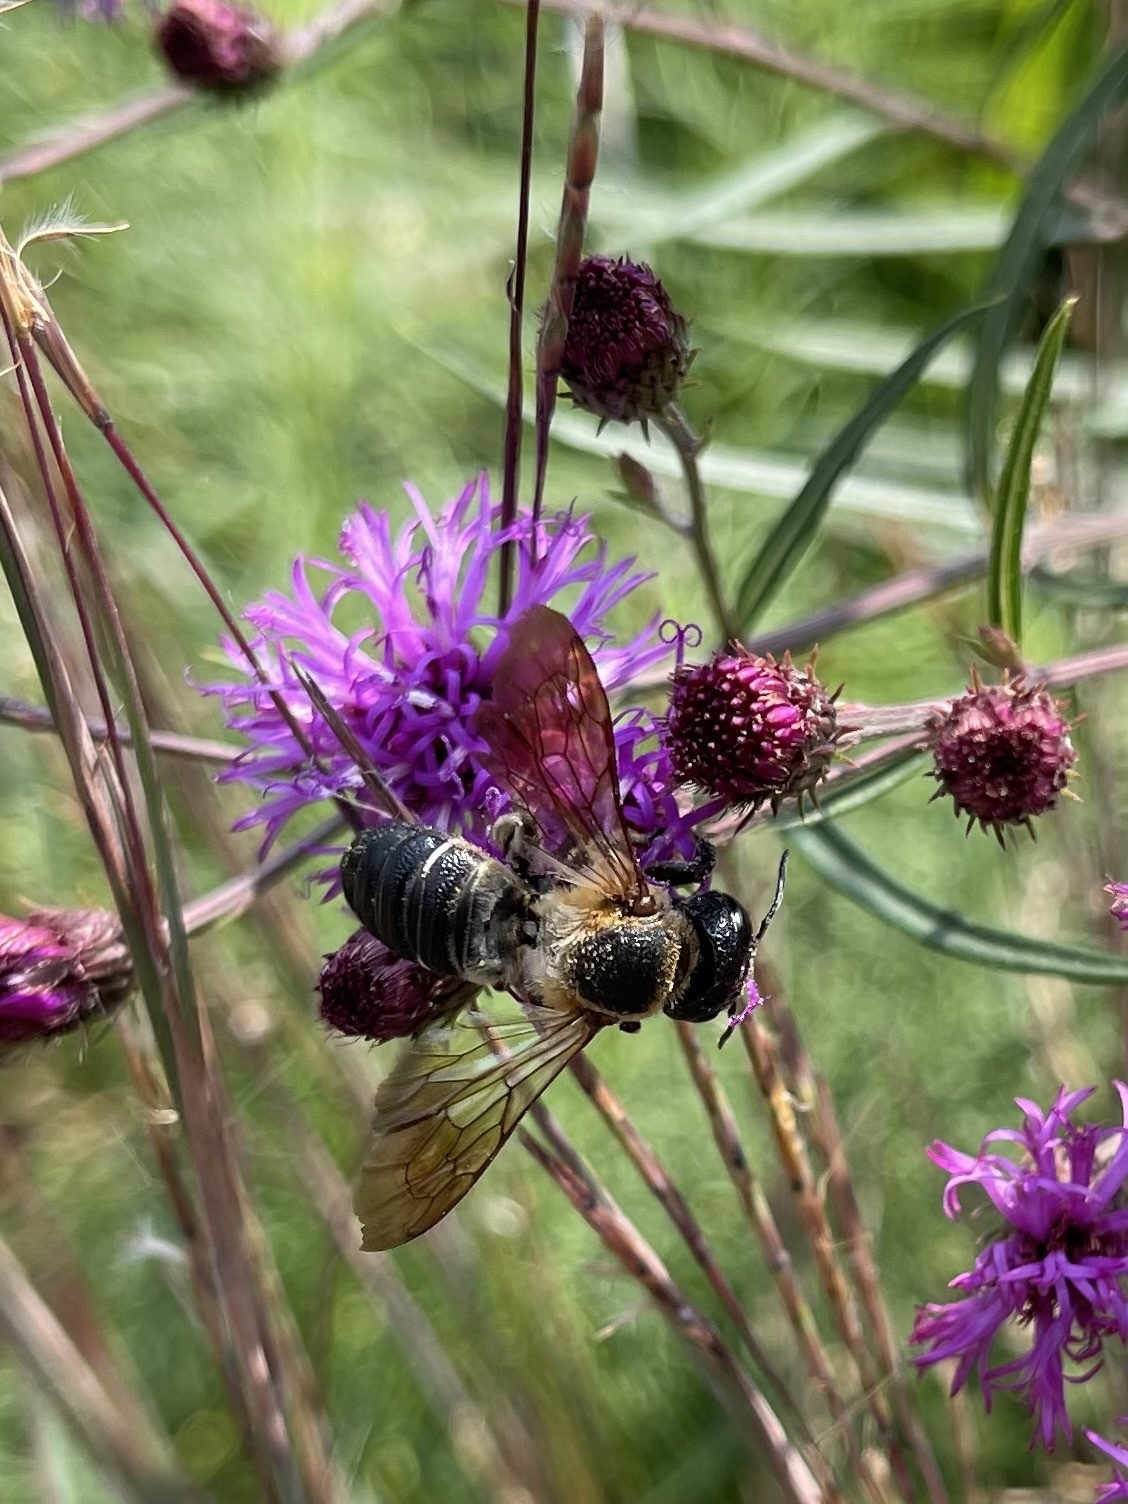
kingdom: Animalia
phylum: Arthropoda
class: Insecta
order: Hymenoptera
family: Megachilidae
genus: Megachile
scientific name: Megachile sculpturalis
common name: Sculptured resin bee
